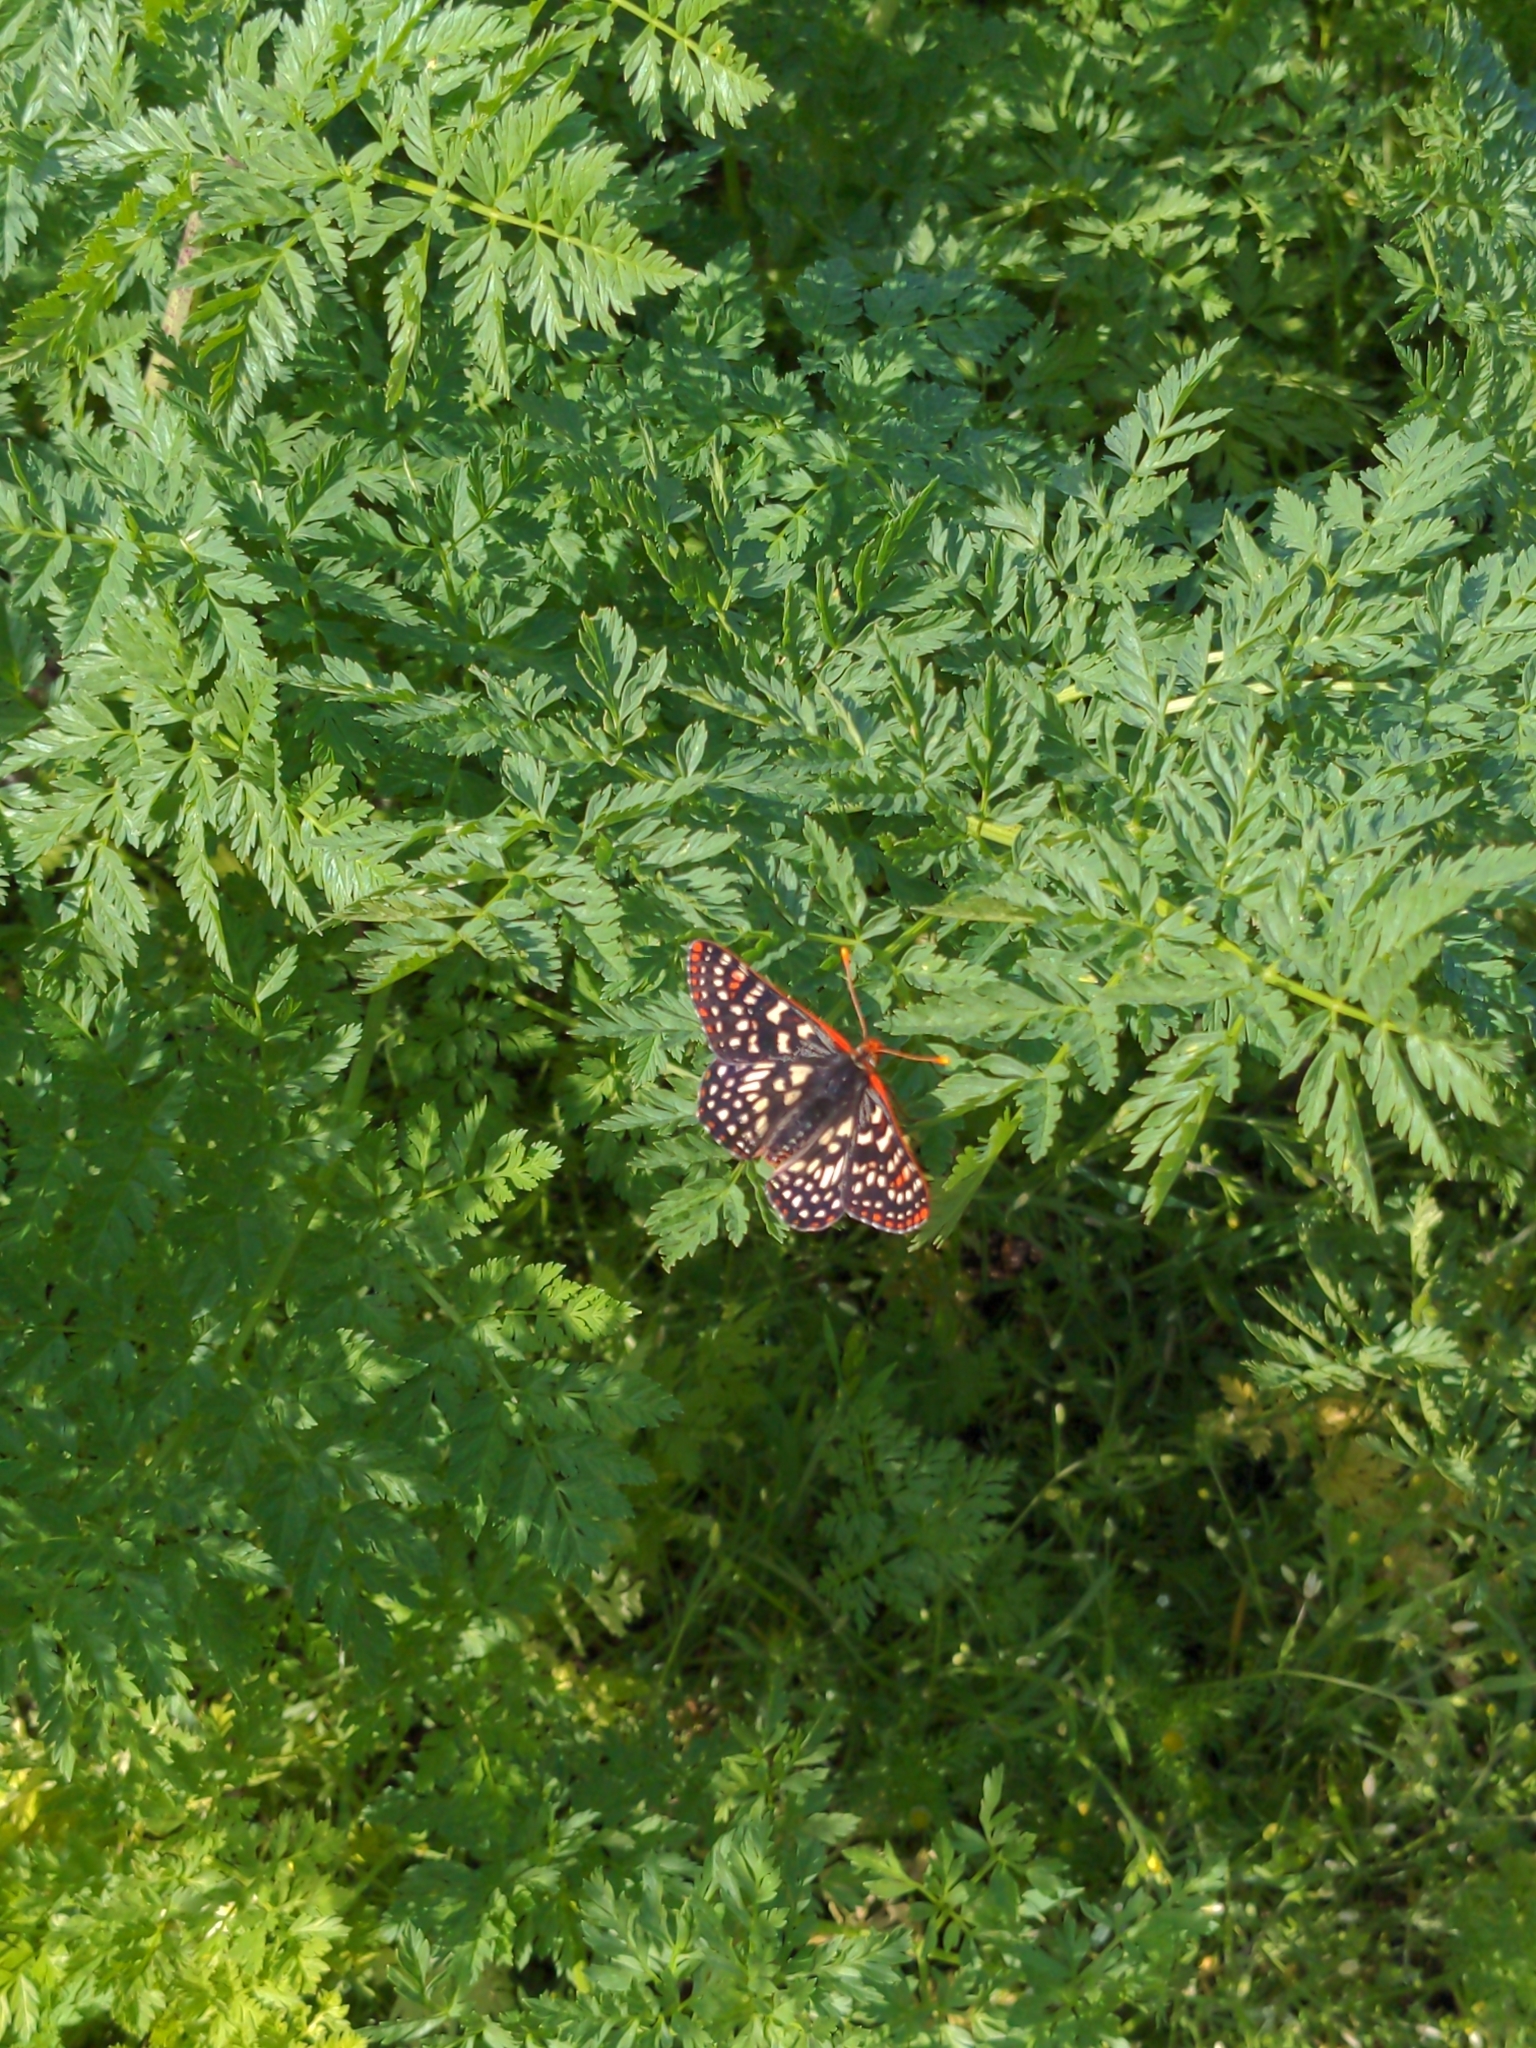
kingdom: Animalia
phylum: Arthropoda
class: Insecta
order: Lepidoptera
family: Nymphalidae
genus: Occidryas
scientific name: Occidryas chalcedona
